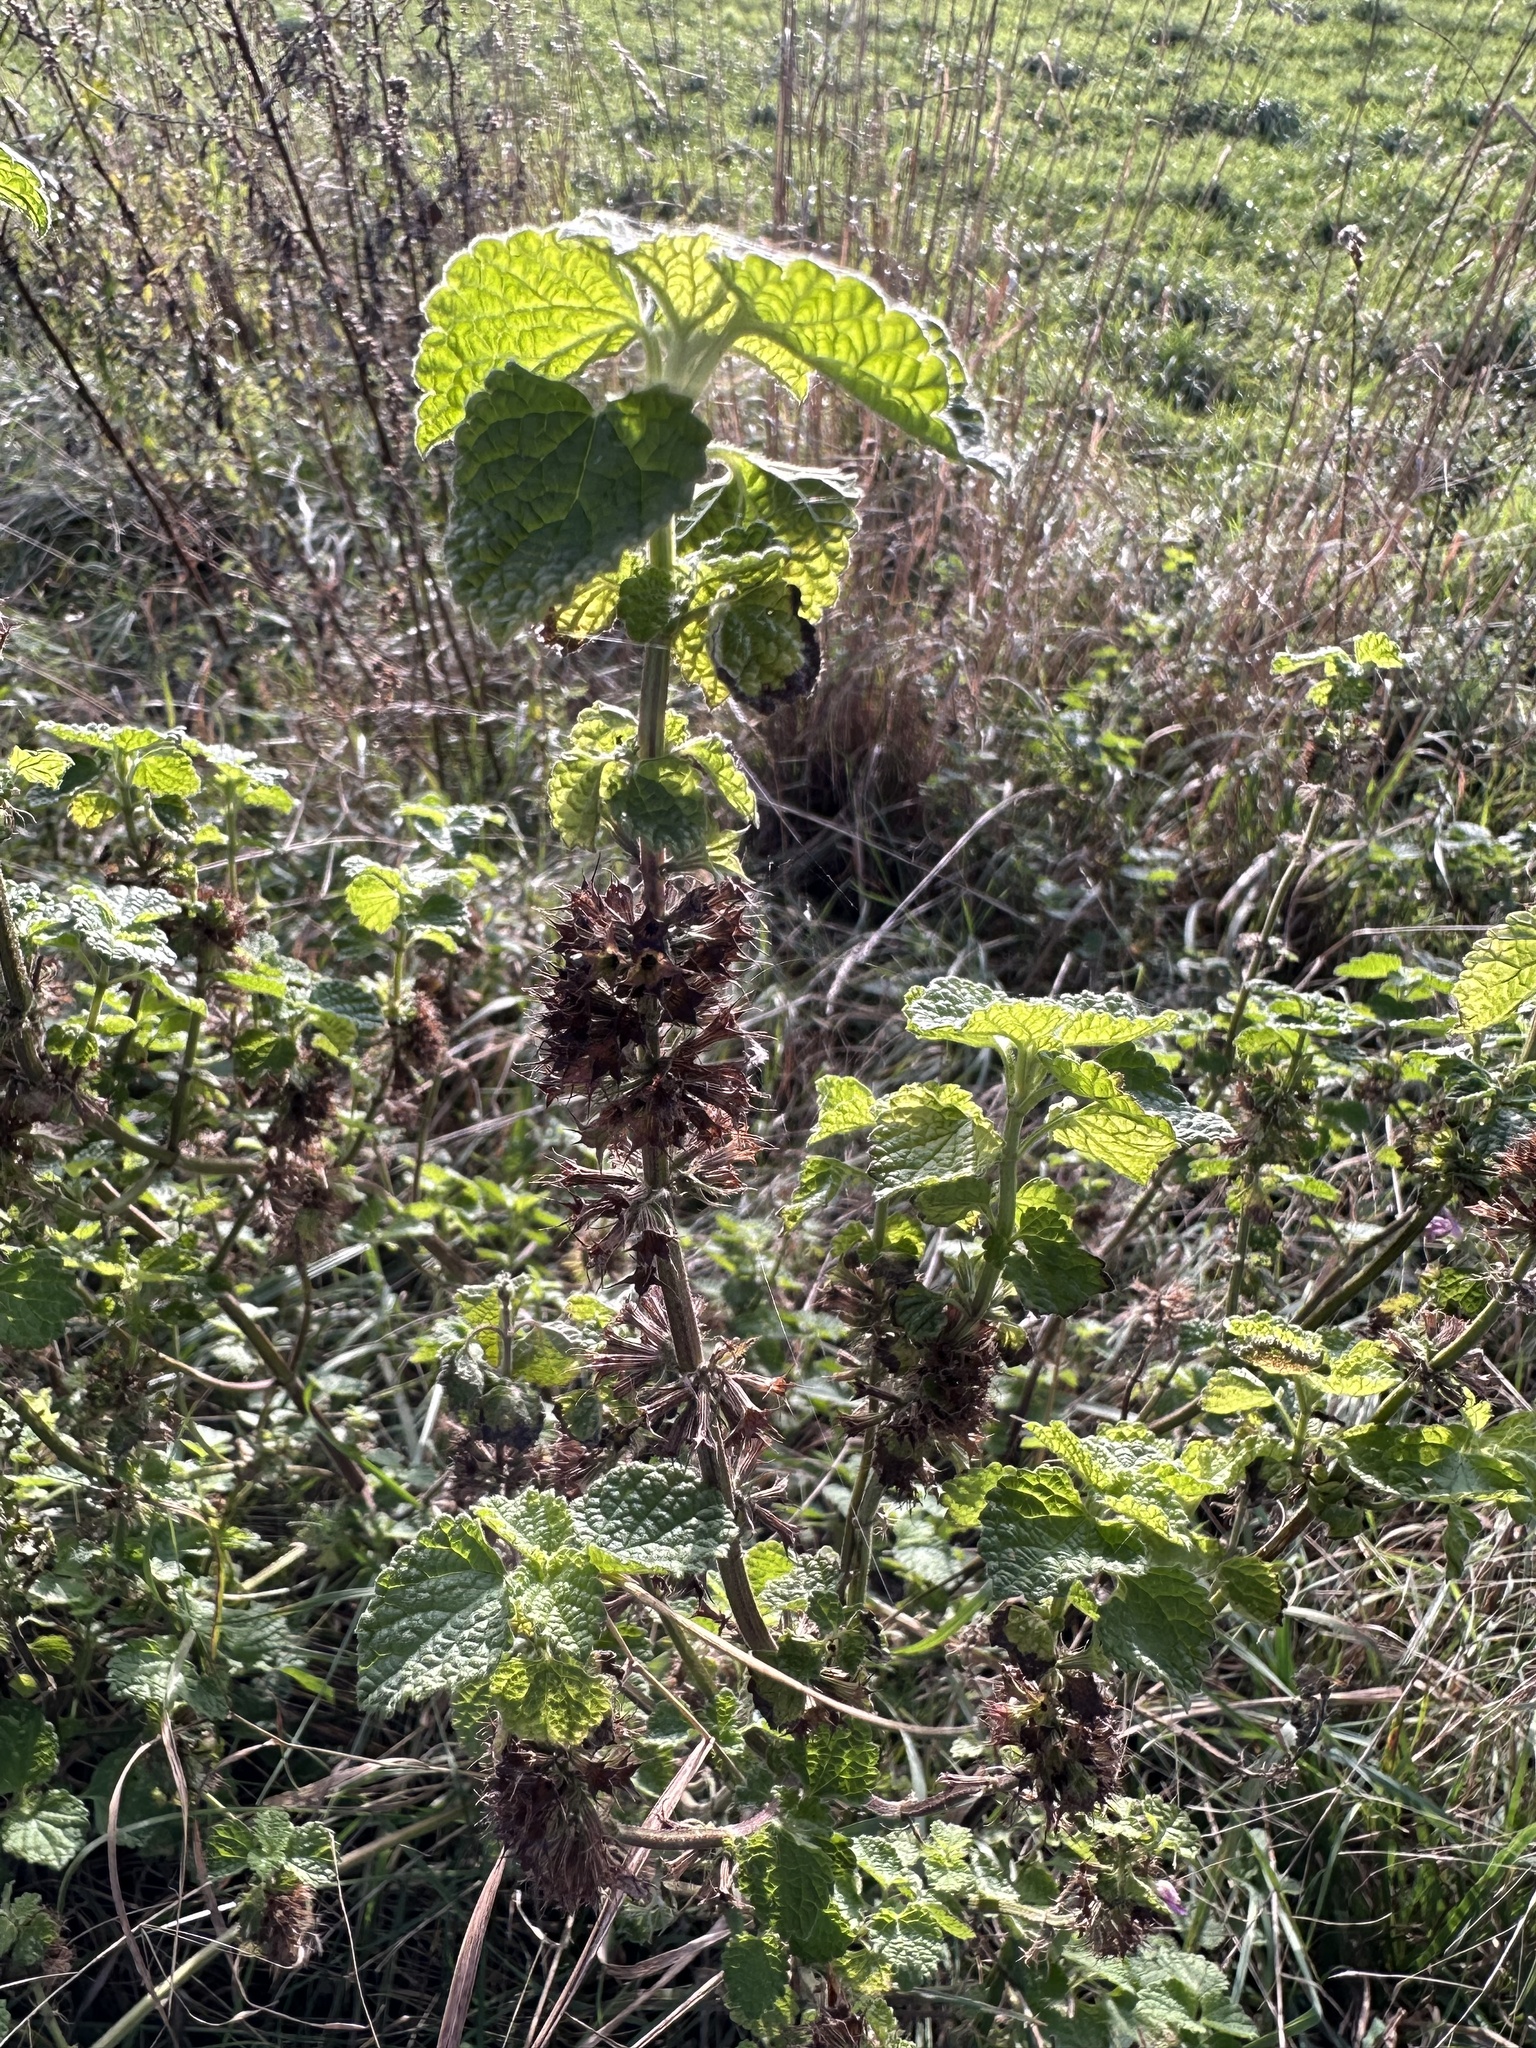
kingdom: Plantae
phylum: Tracheophyta
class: Magnoliopsida
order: Lamiales
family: Lamiaceae
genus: Ballota
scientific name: Ballota nigra
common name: Black horehound
